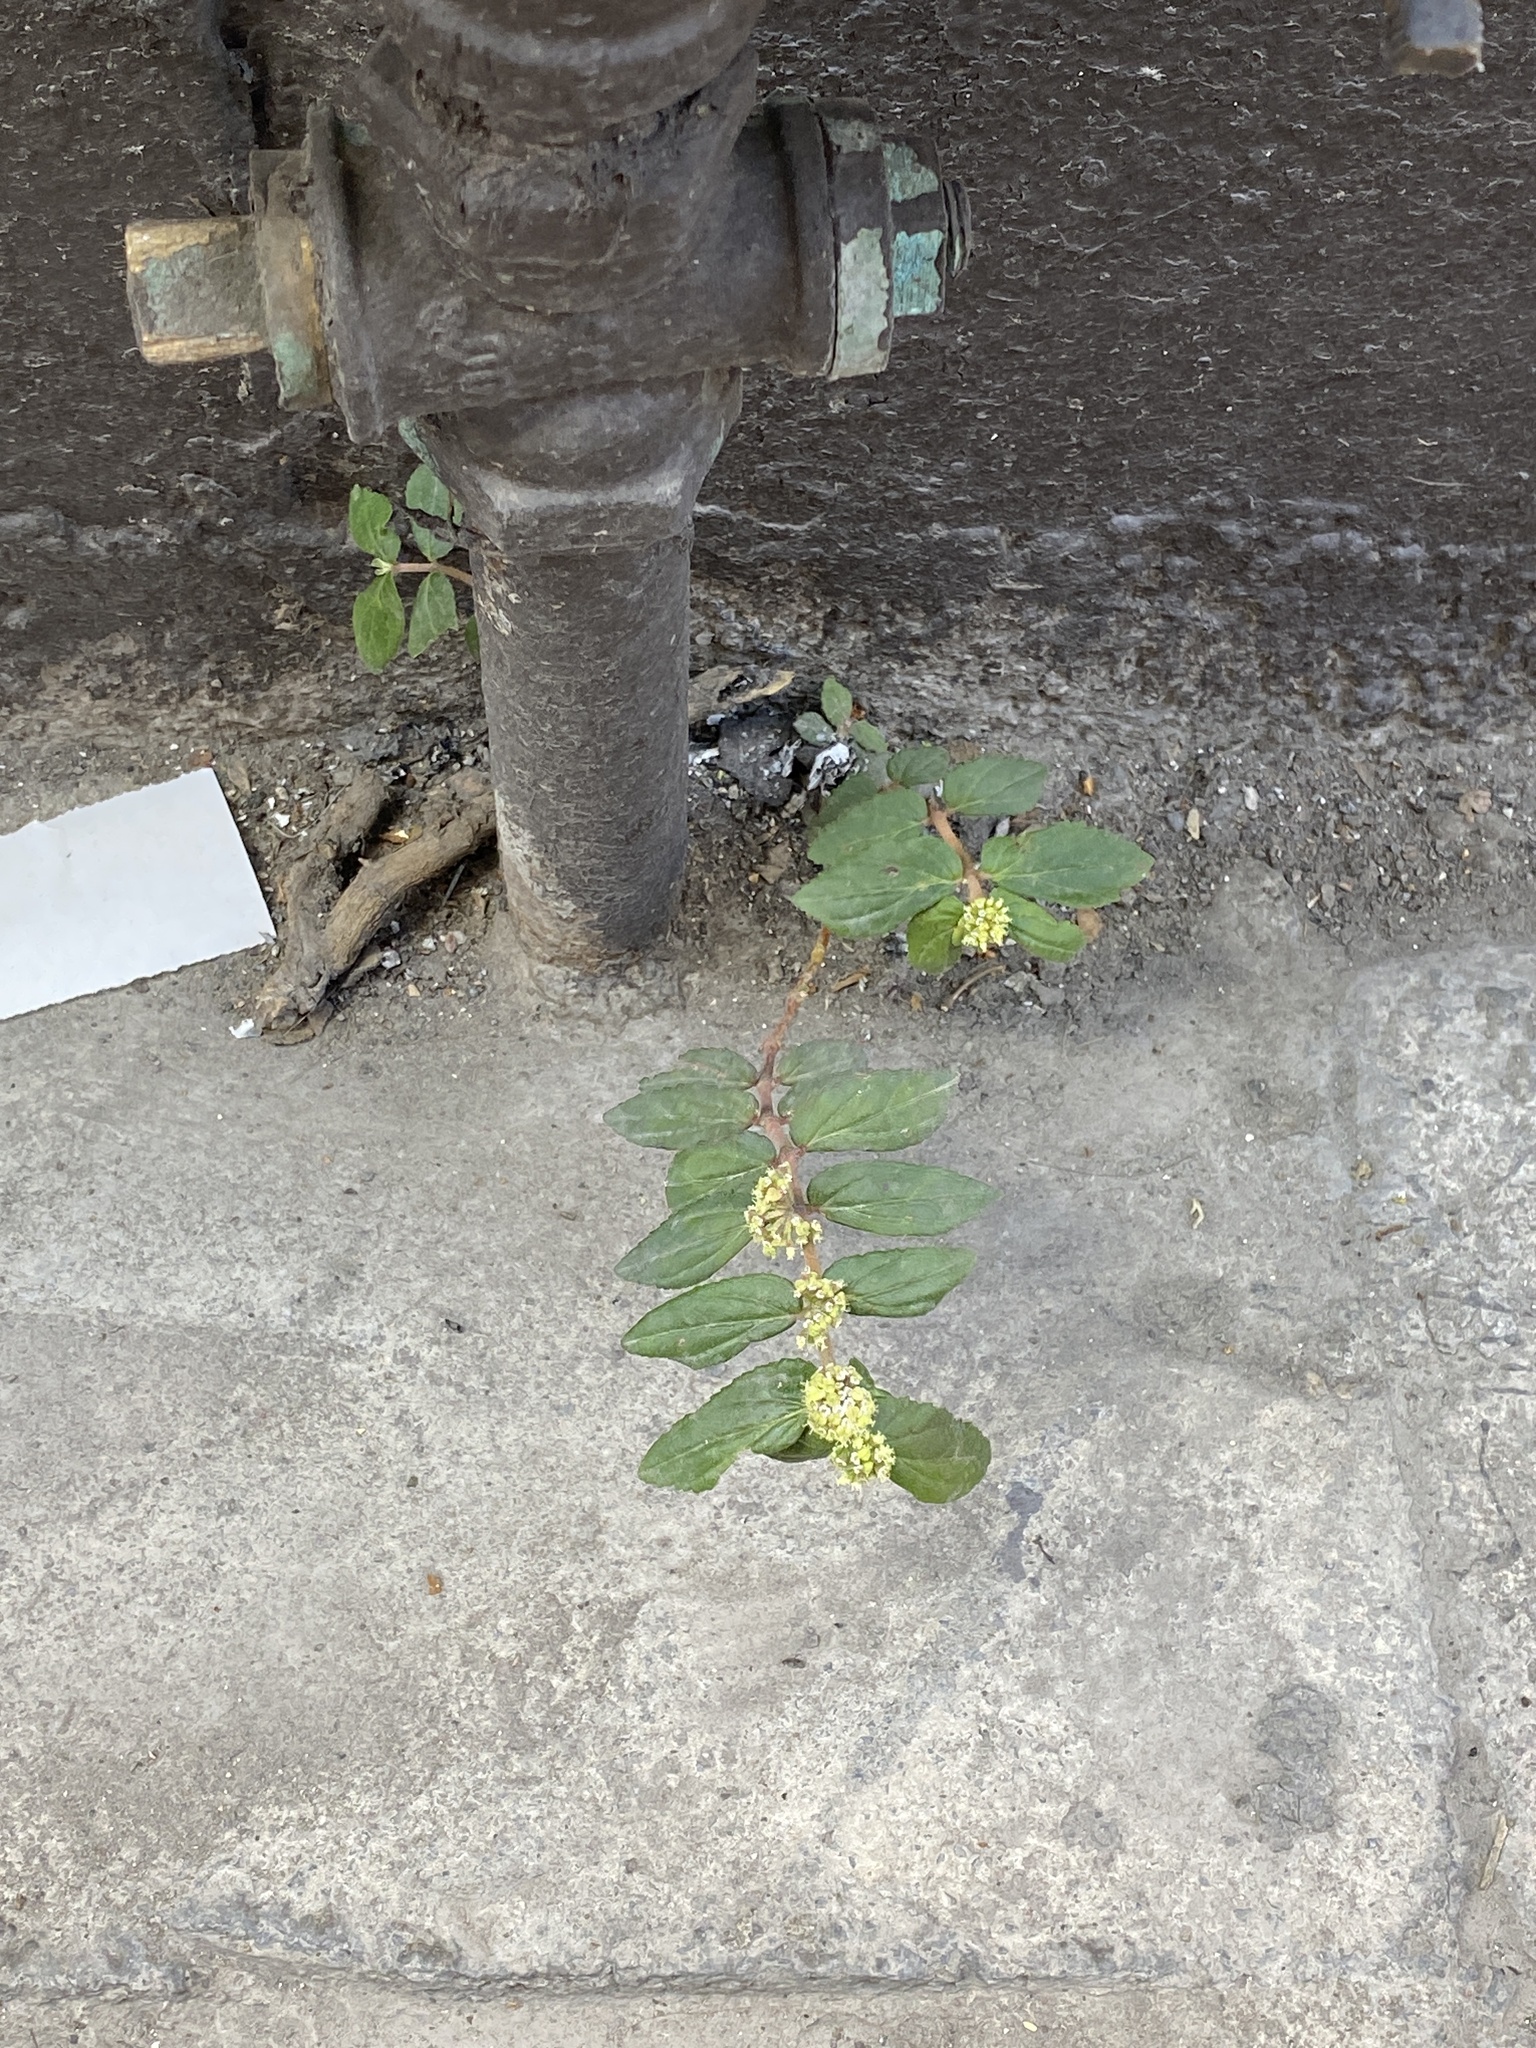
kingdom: Plantae
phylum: Tracheophyta
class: Magnoliopsida
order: Malpighiales
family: Euphorbiaceae
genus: Euphorbia
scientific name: Euphorbia hirta
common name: Pillpod sandmat
